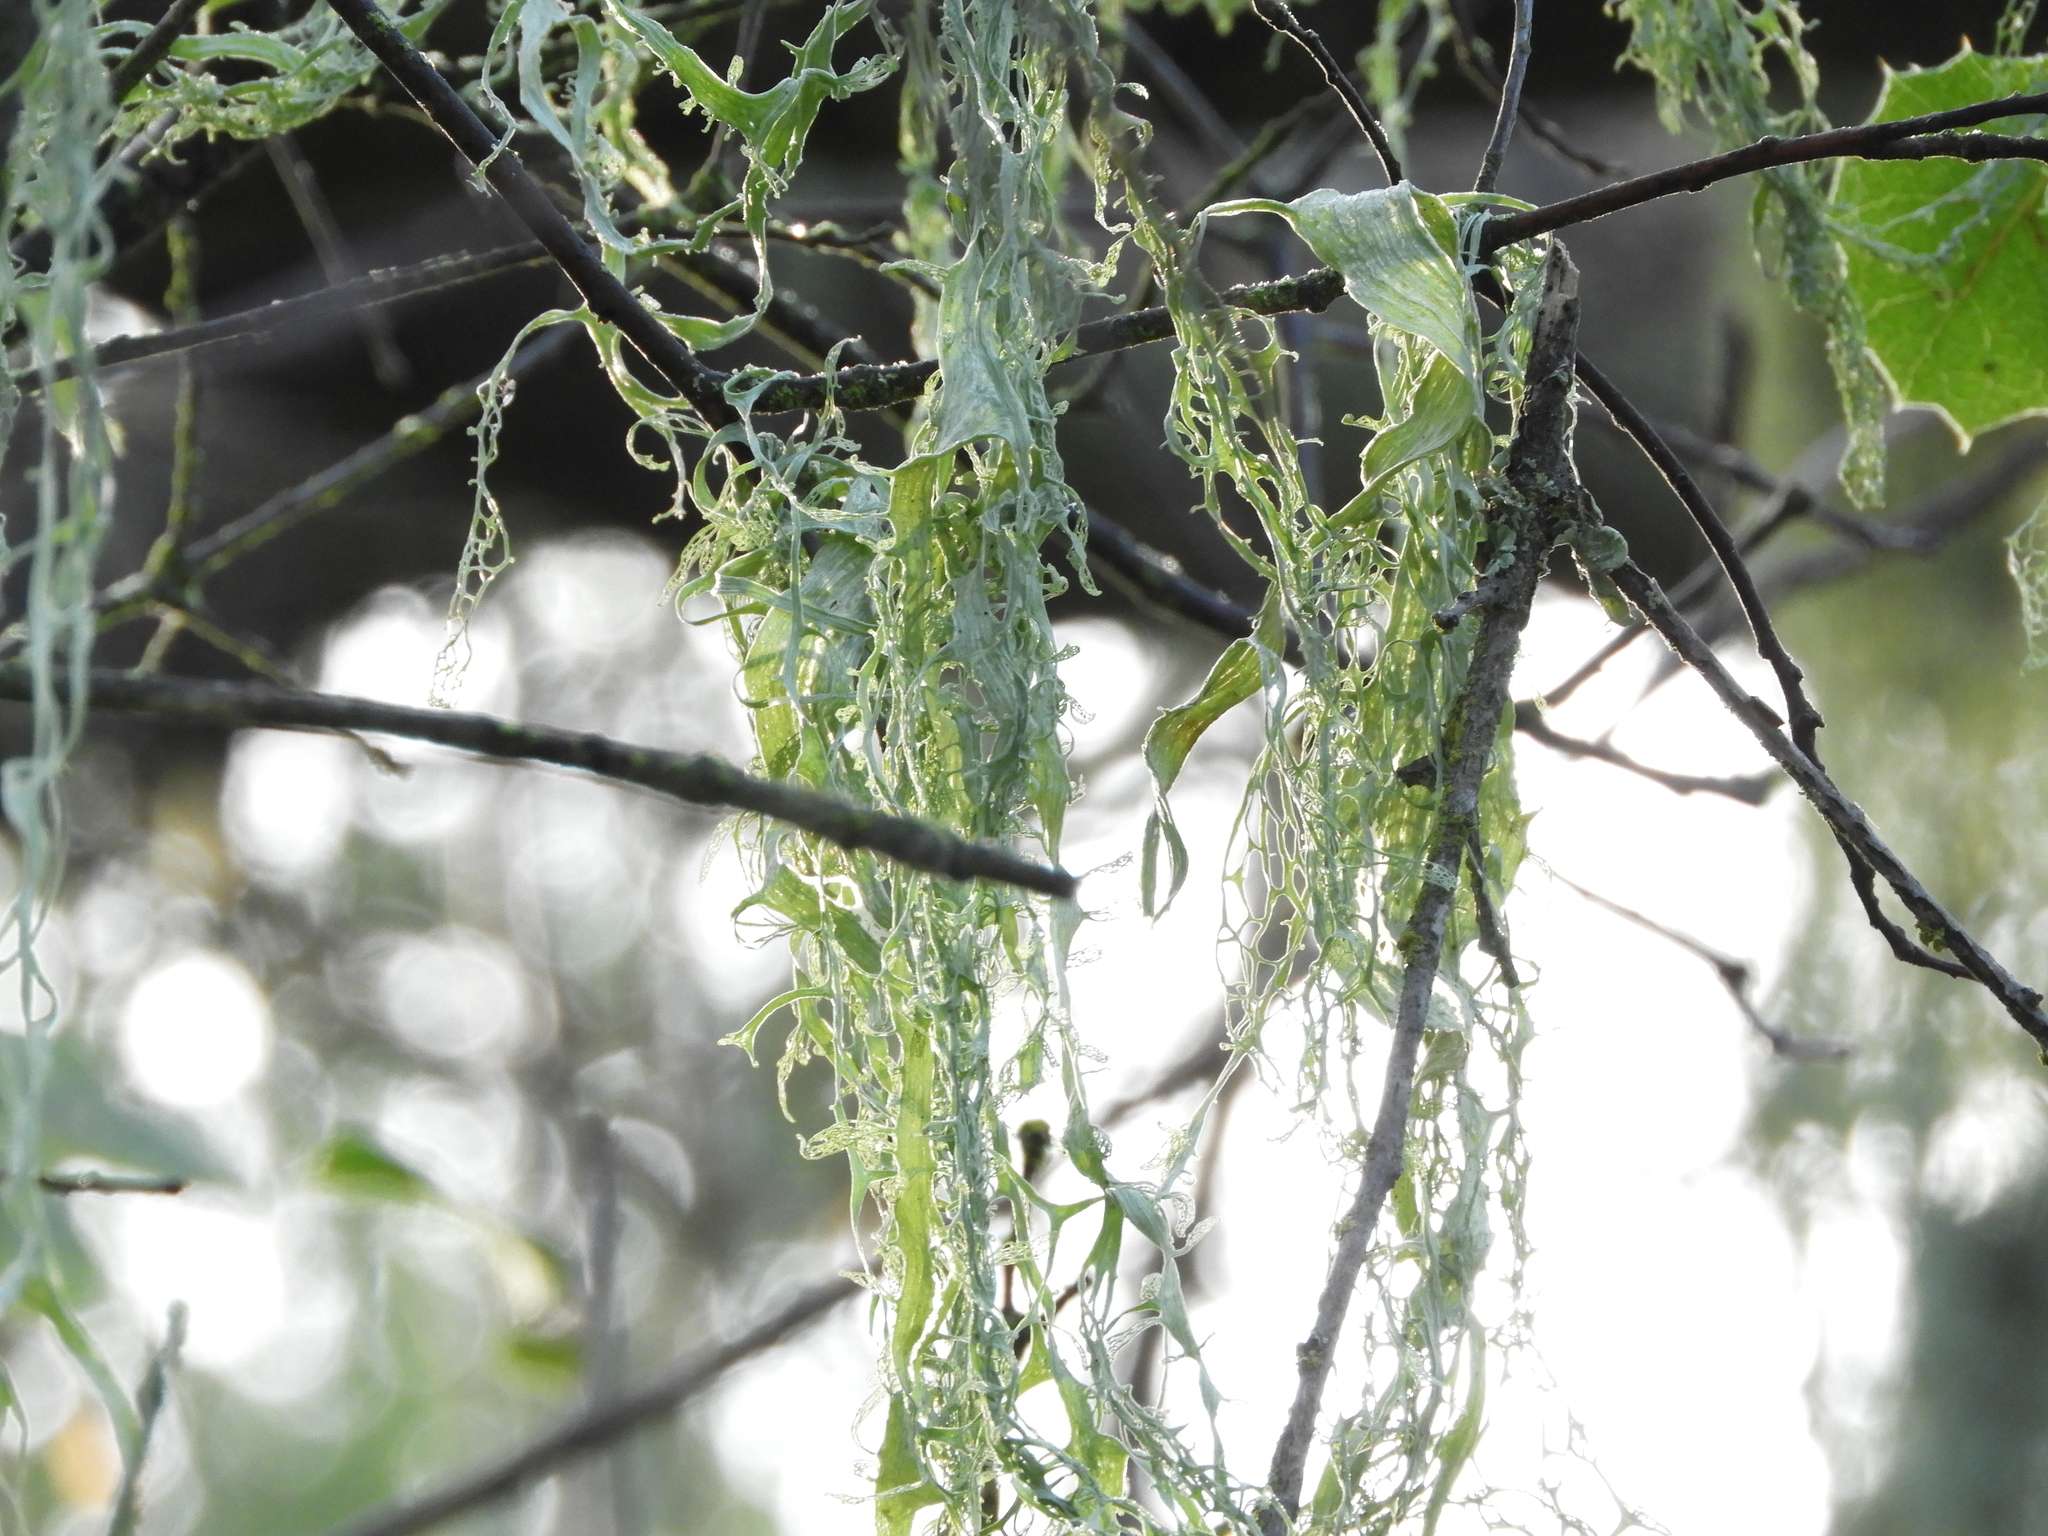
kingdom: Fungi
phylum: Ascomycota
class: Lecanoromycetes
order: Lecanorales
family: Ramalinaceae
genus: Ramalina
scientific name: Ramalina menziesii
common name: Lace lichen
